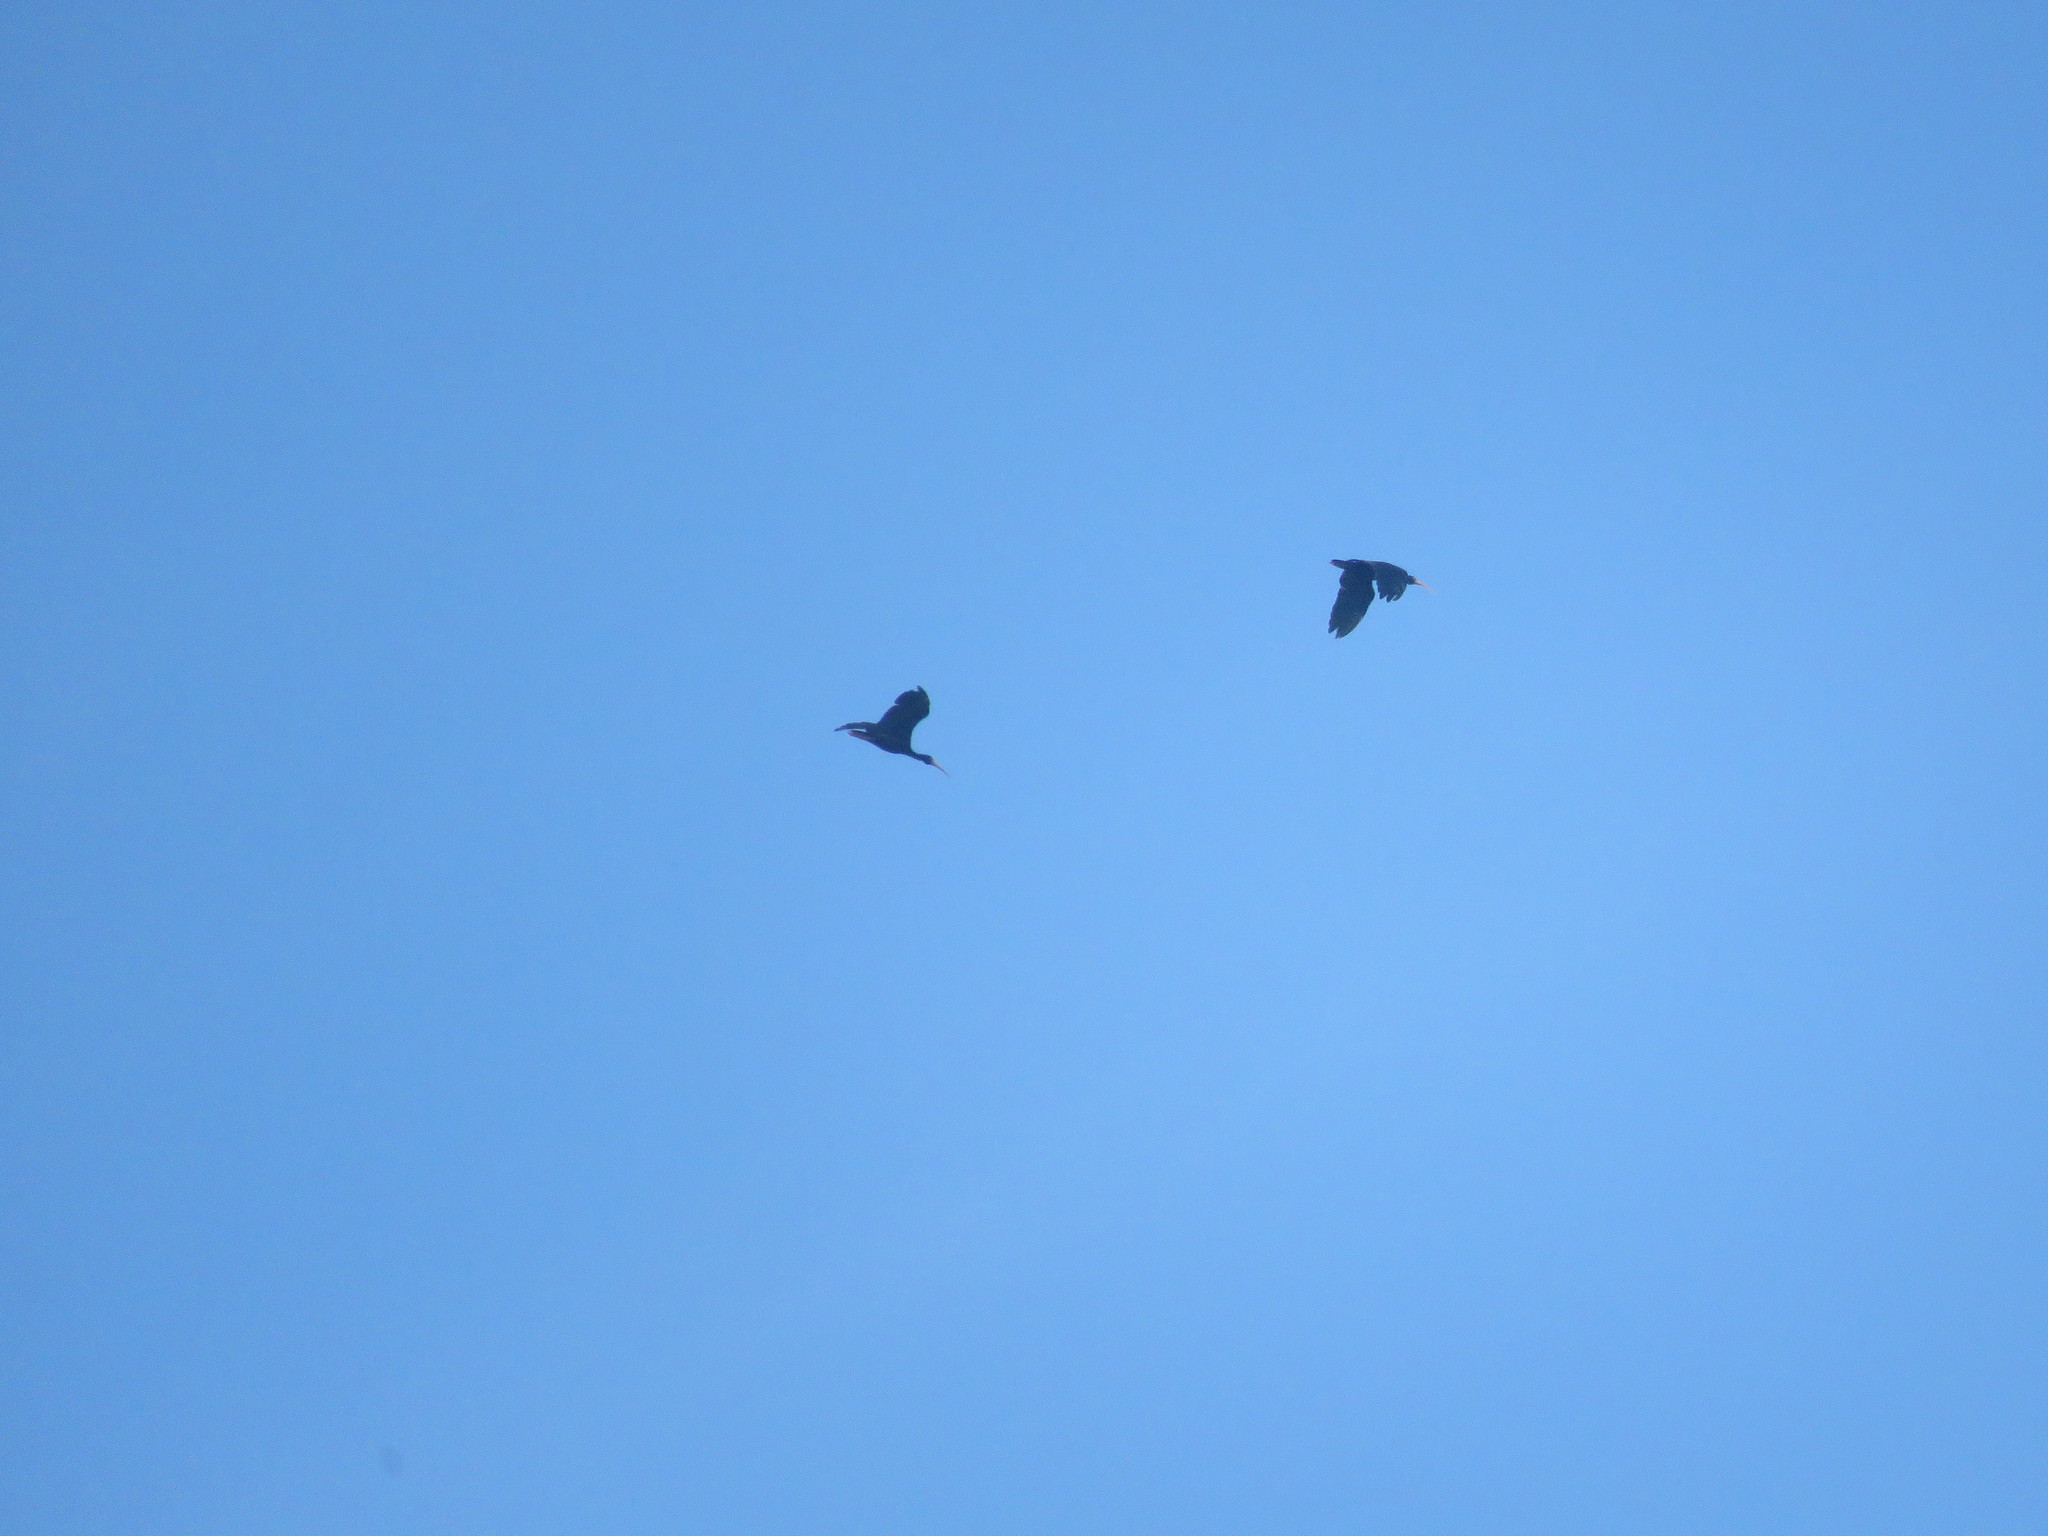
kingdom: Animalia
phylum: Chordata
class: Aves
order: Pelecaniformes
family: Threskiornithidae
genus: Phimosus
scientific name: Phimosus infuscatus
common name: Bare-faced ibis
